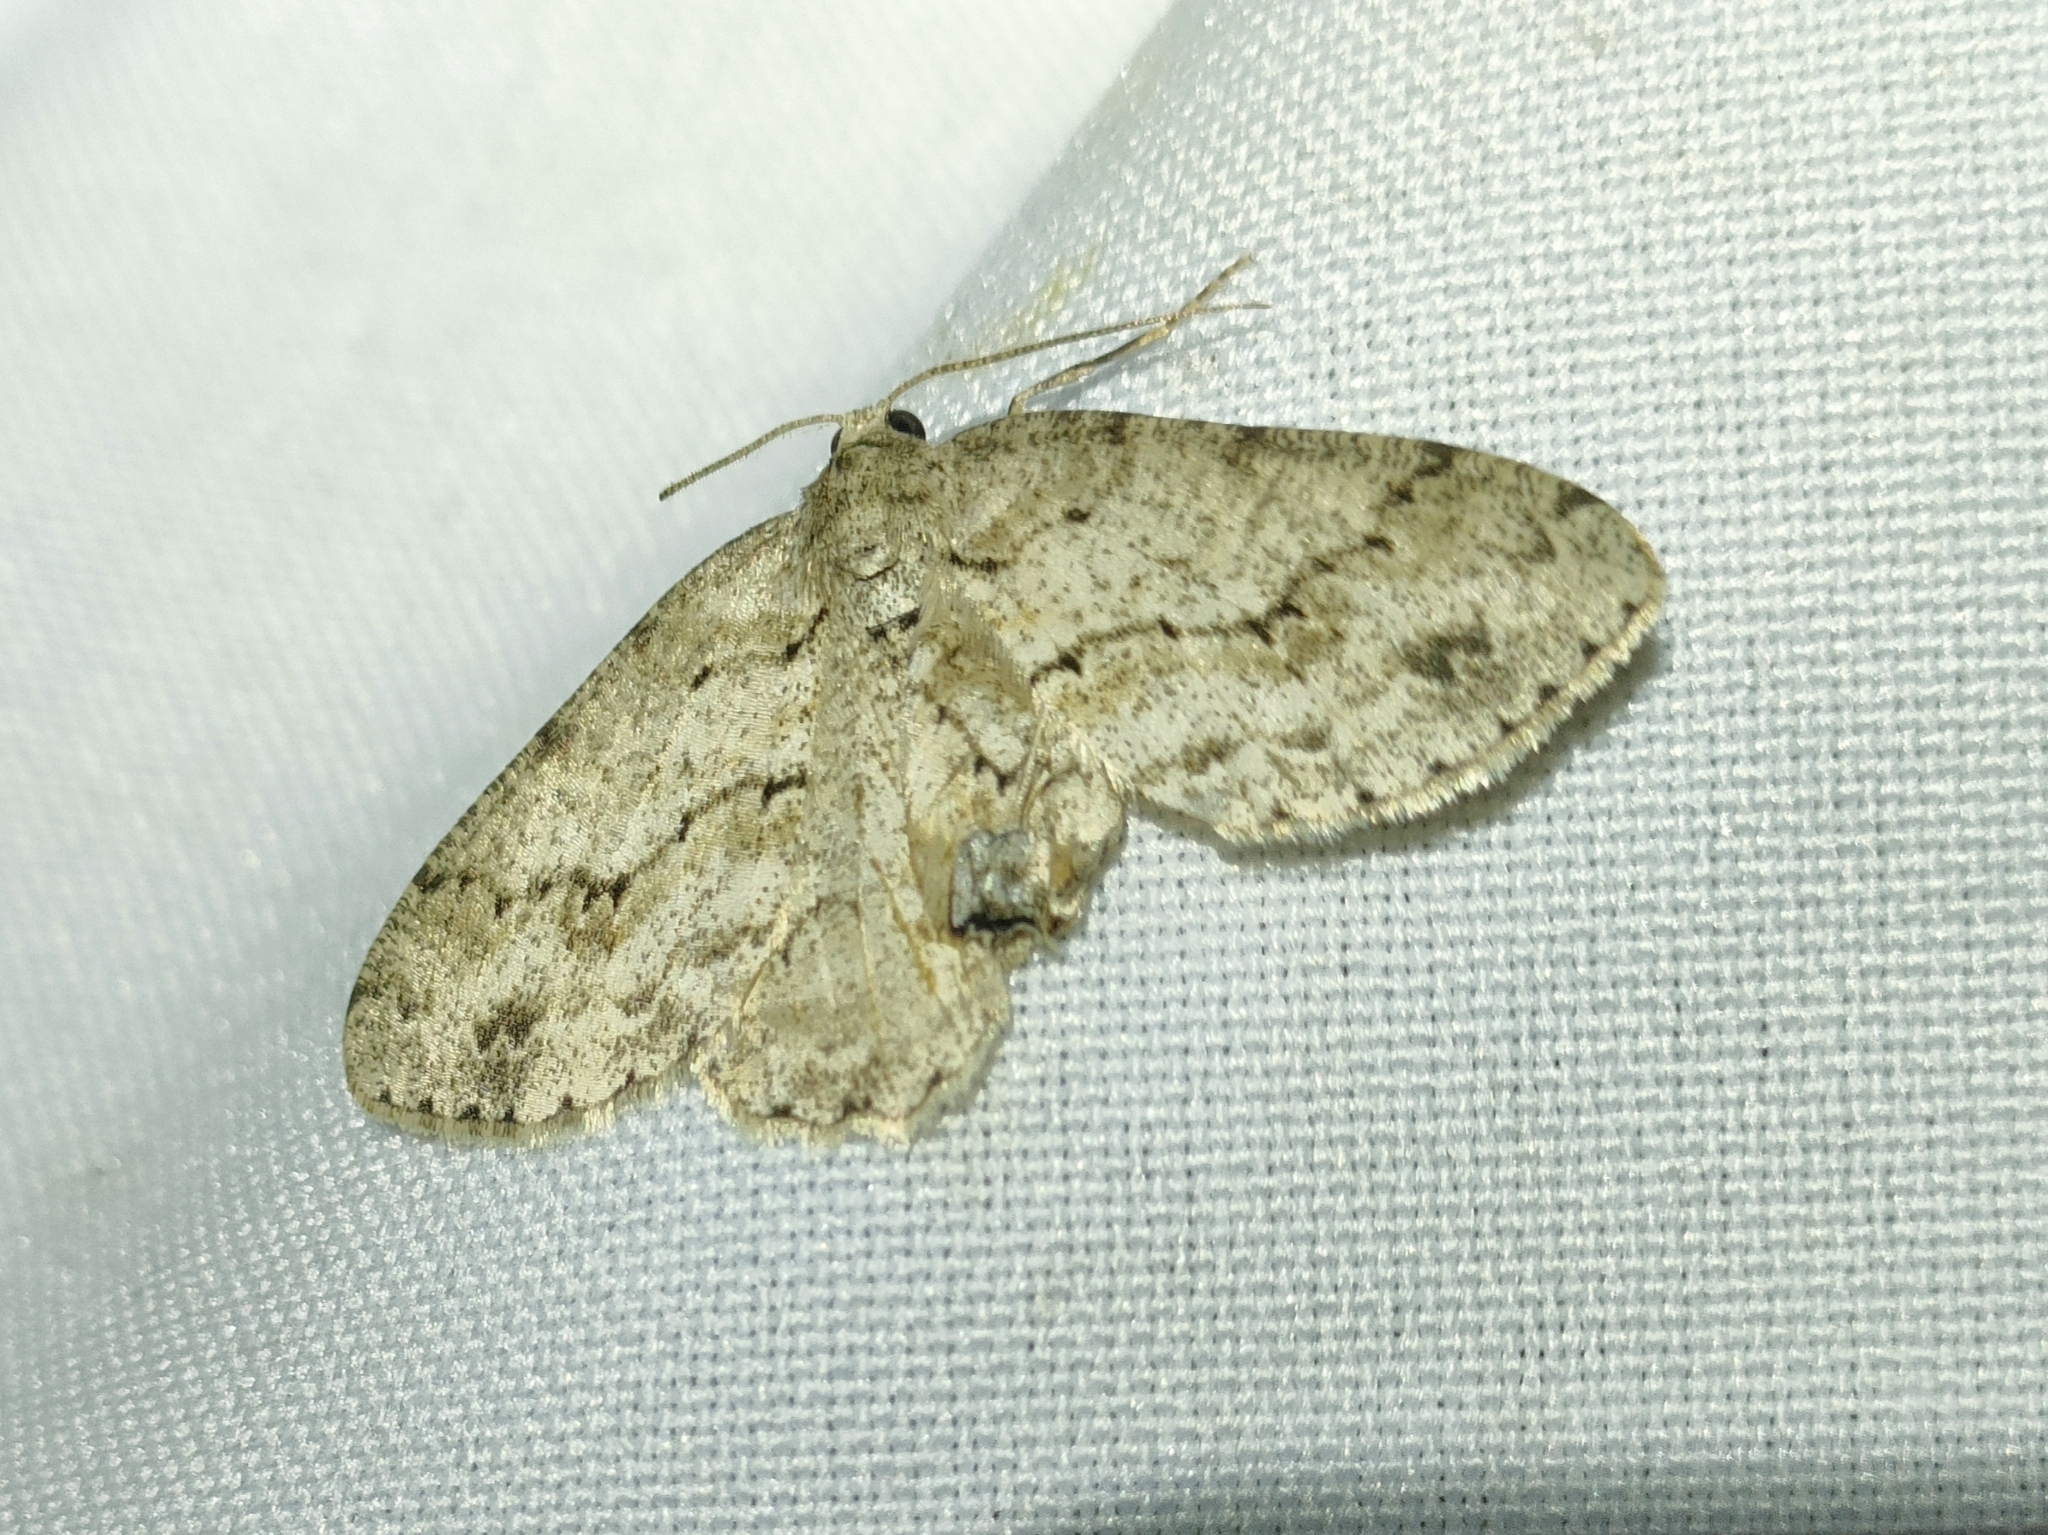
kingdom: Animalia
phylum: Arthropoda
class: Insecta
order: Lepidoptera
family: Geometridae
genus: Ectropis
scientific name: Ectropis crepuscularia
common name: Engrailed
